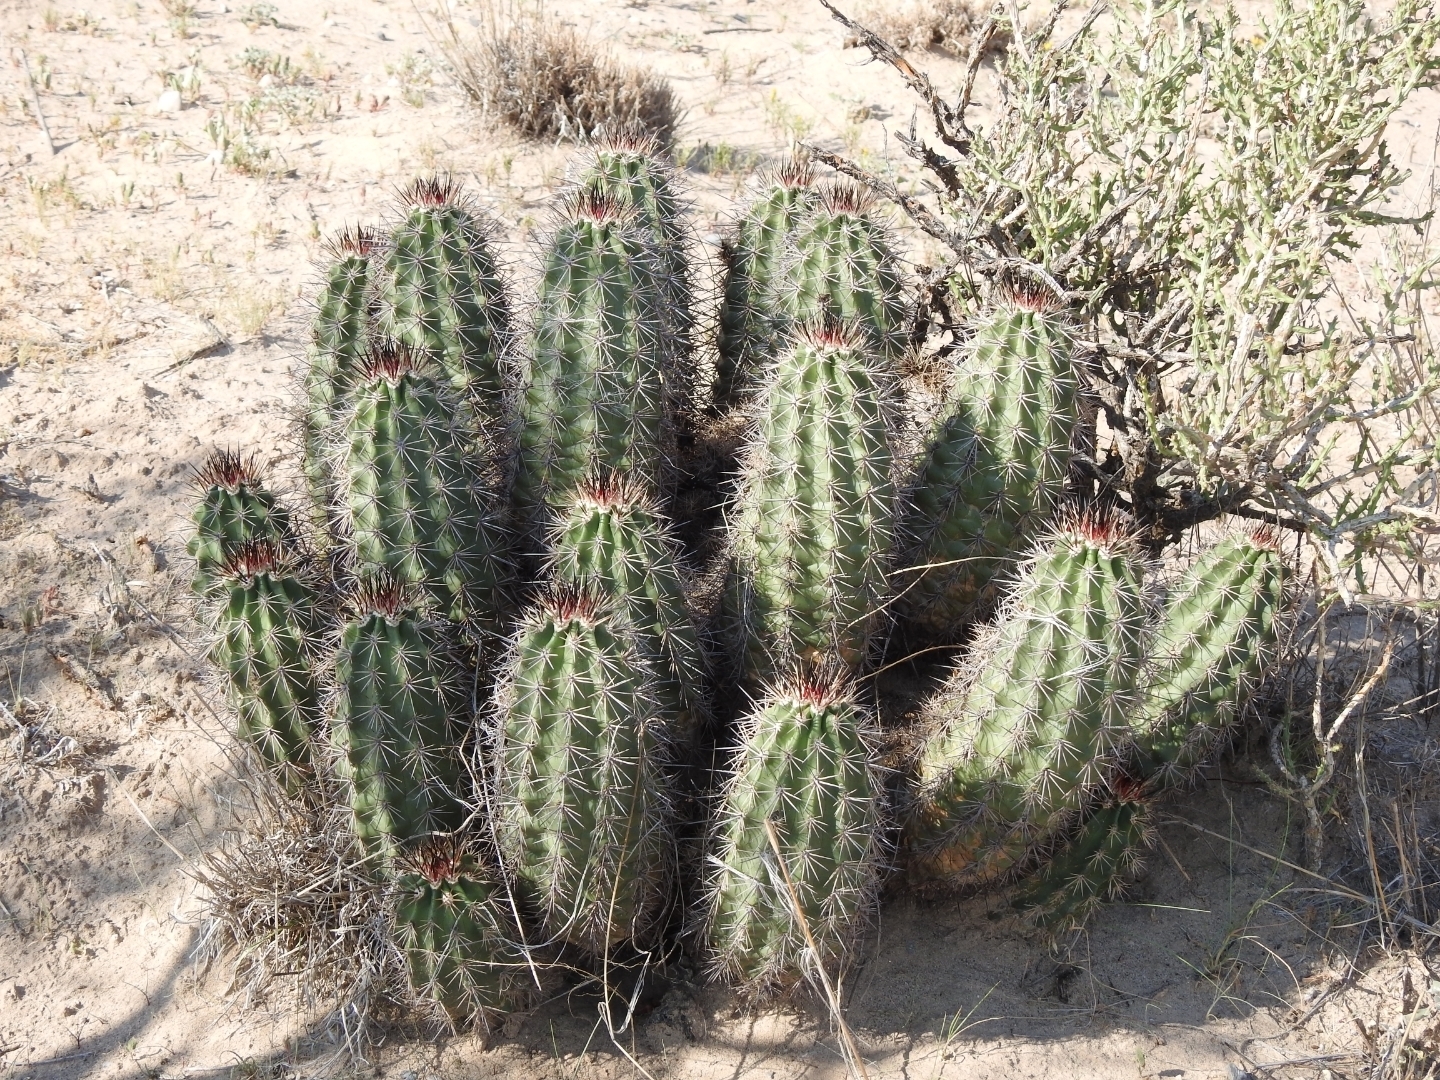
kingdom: Plantae
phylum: Tracheophyta
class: Magnoliopsida
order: Caryophyllales
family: Cactaceae
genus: Echinocereus
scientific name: Echinocereus coccineus
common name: Scarlet hedgehog cactus
